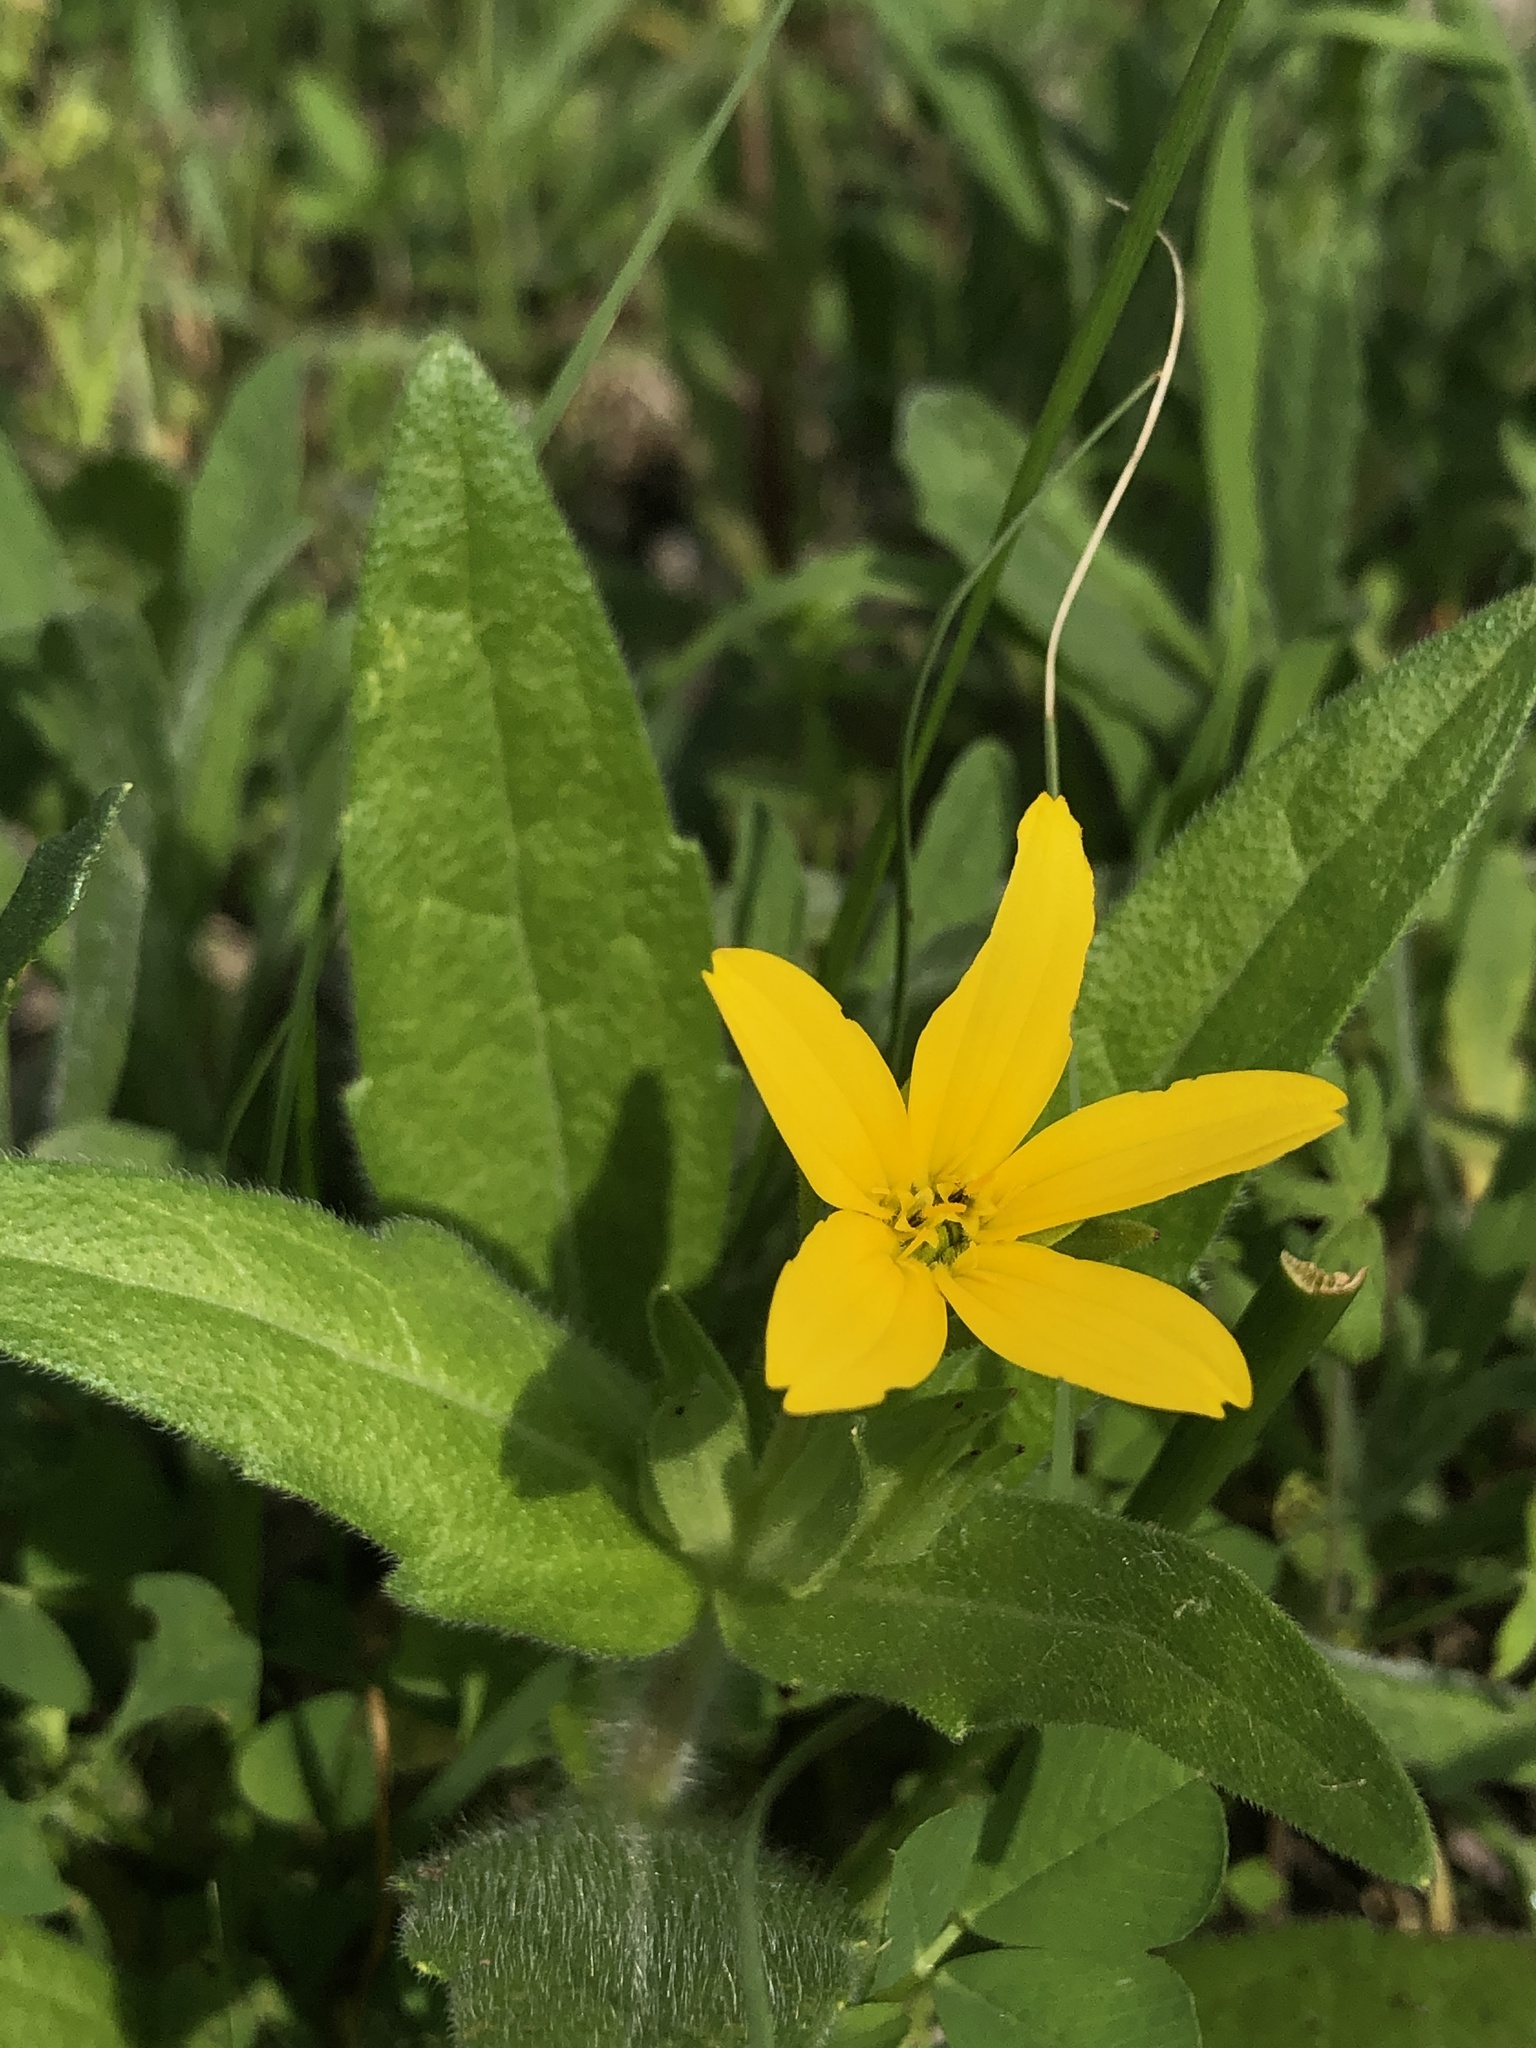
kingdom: Plantae
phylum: Tracheophyta
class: Magnoliopsida
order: Asterales
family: Asteraceae
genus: Lindheimera
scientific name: Lindheimera texana
